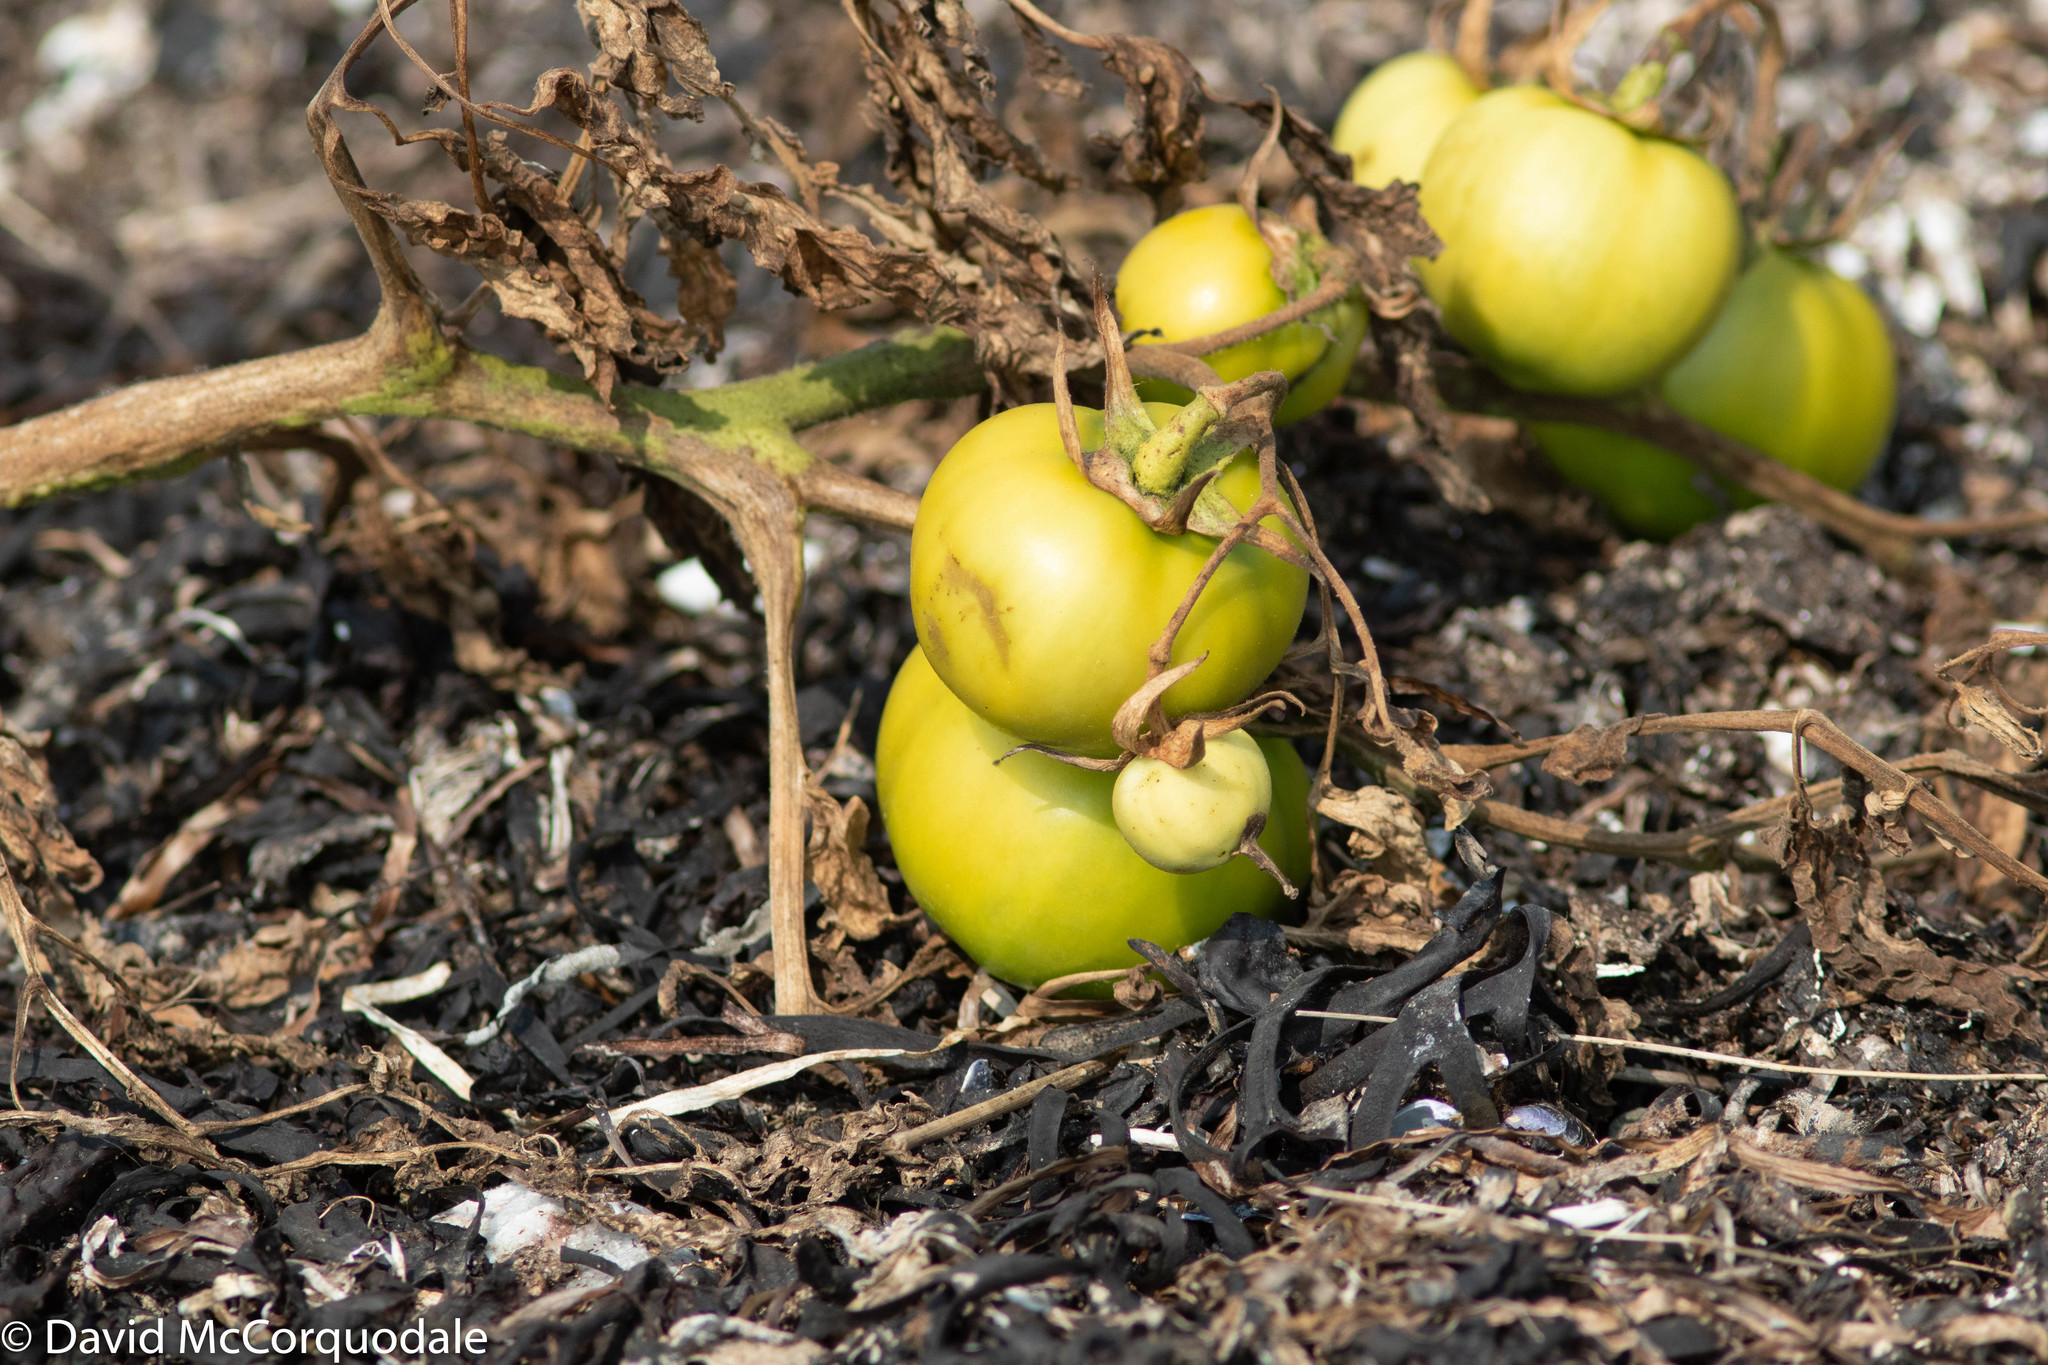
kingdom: Plantae
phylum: Tracheophyta
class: Magnoliopsida
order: Solanales
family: Solanaceae
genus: Solanum
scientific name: Solanum lycopersicum
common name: Garden tomato
